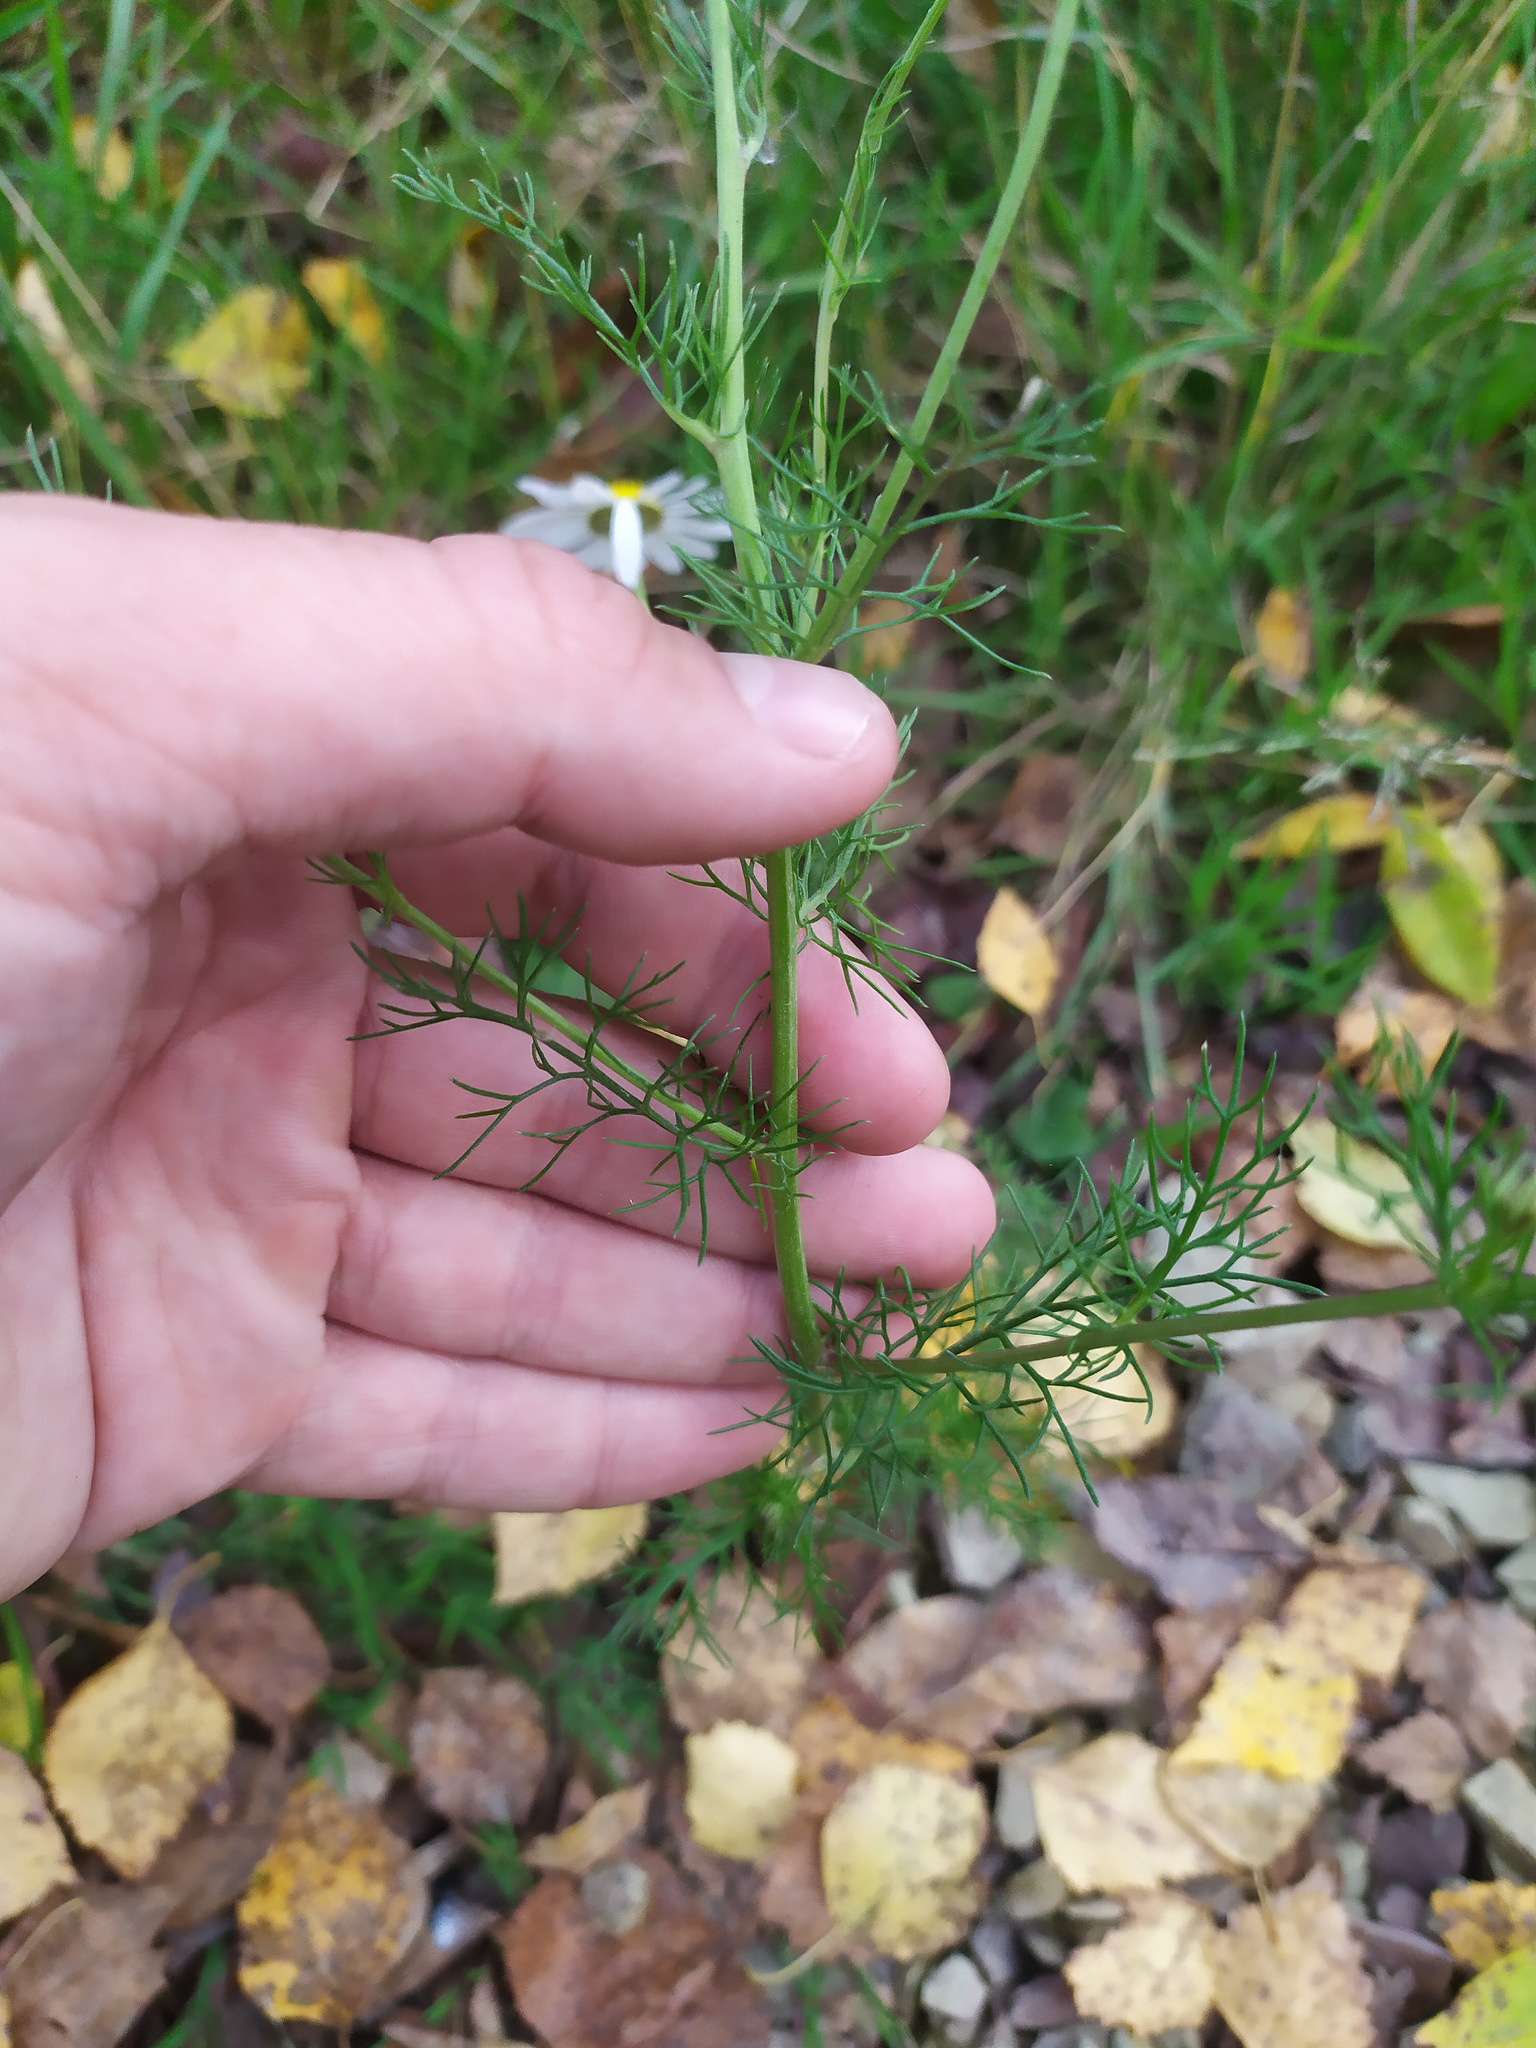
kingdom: Plantae
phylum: Tracheophyta
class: Magnoliopsida
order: Asterales
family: Asteraceae
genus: Tripleurospermum
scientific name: Tripleurospermum inodorum
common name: Scentless mayweed
